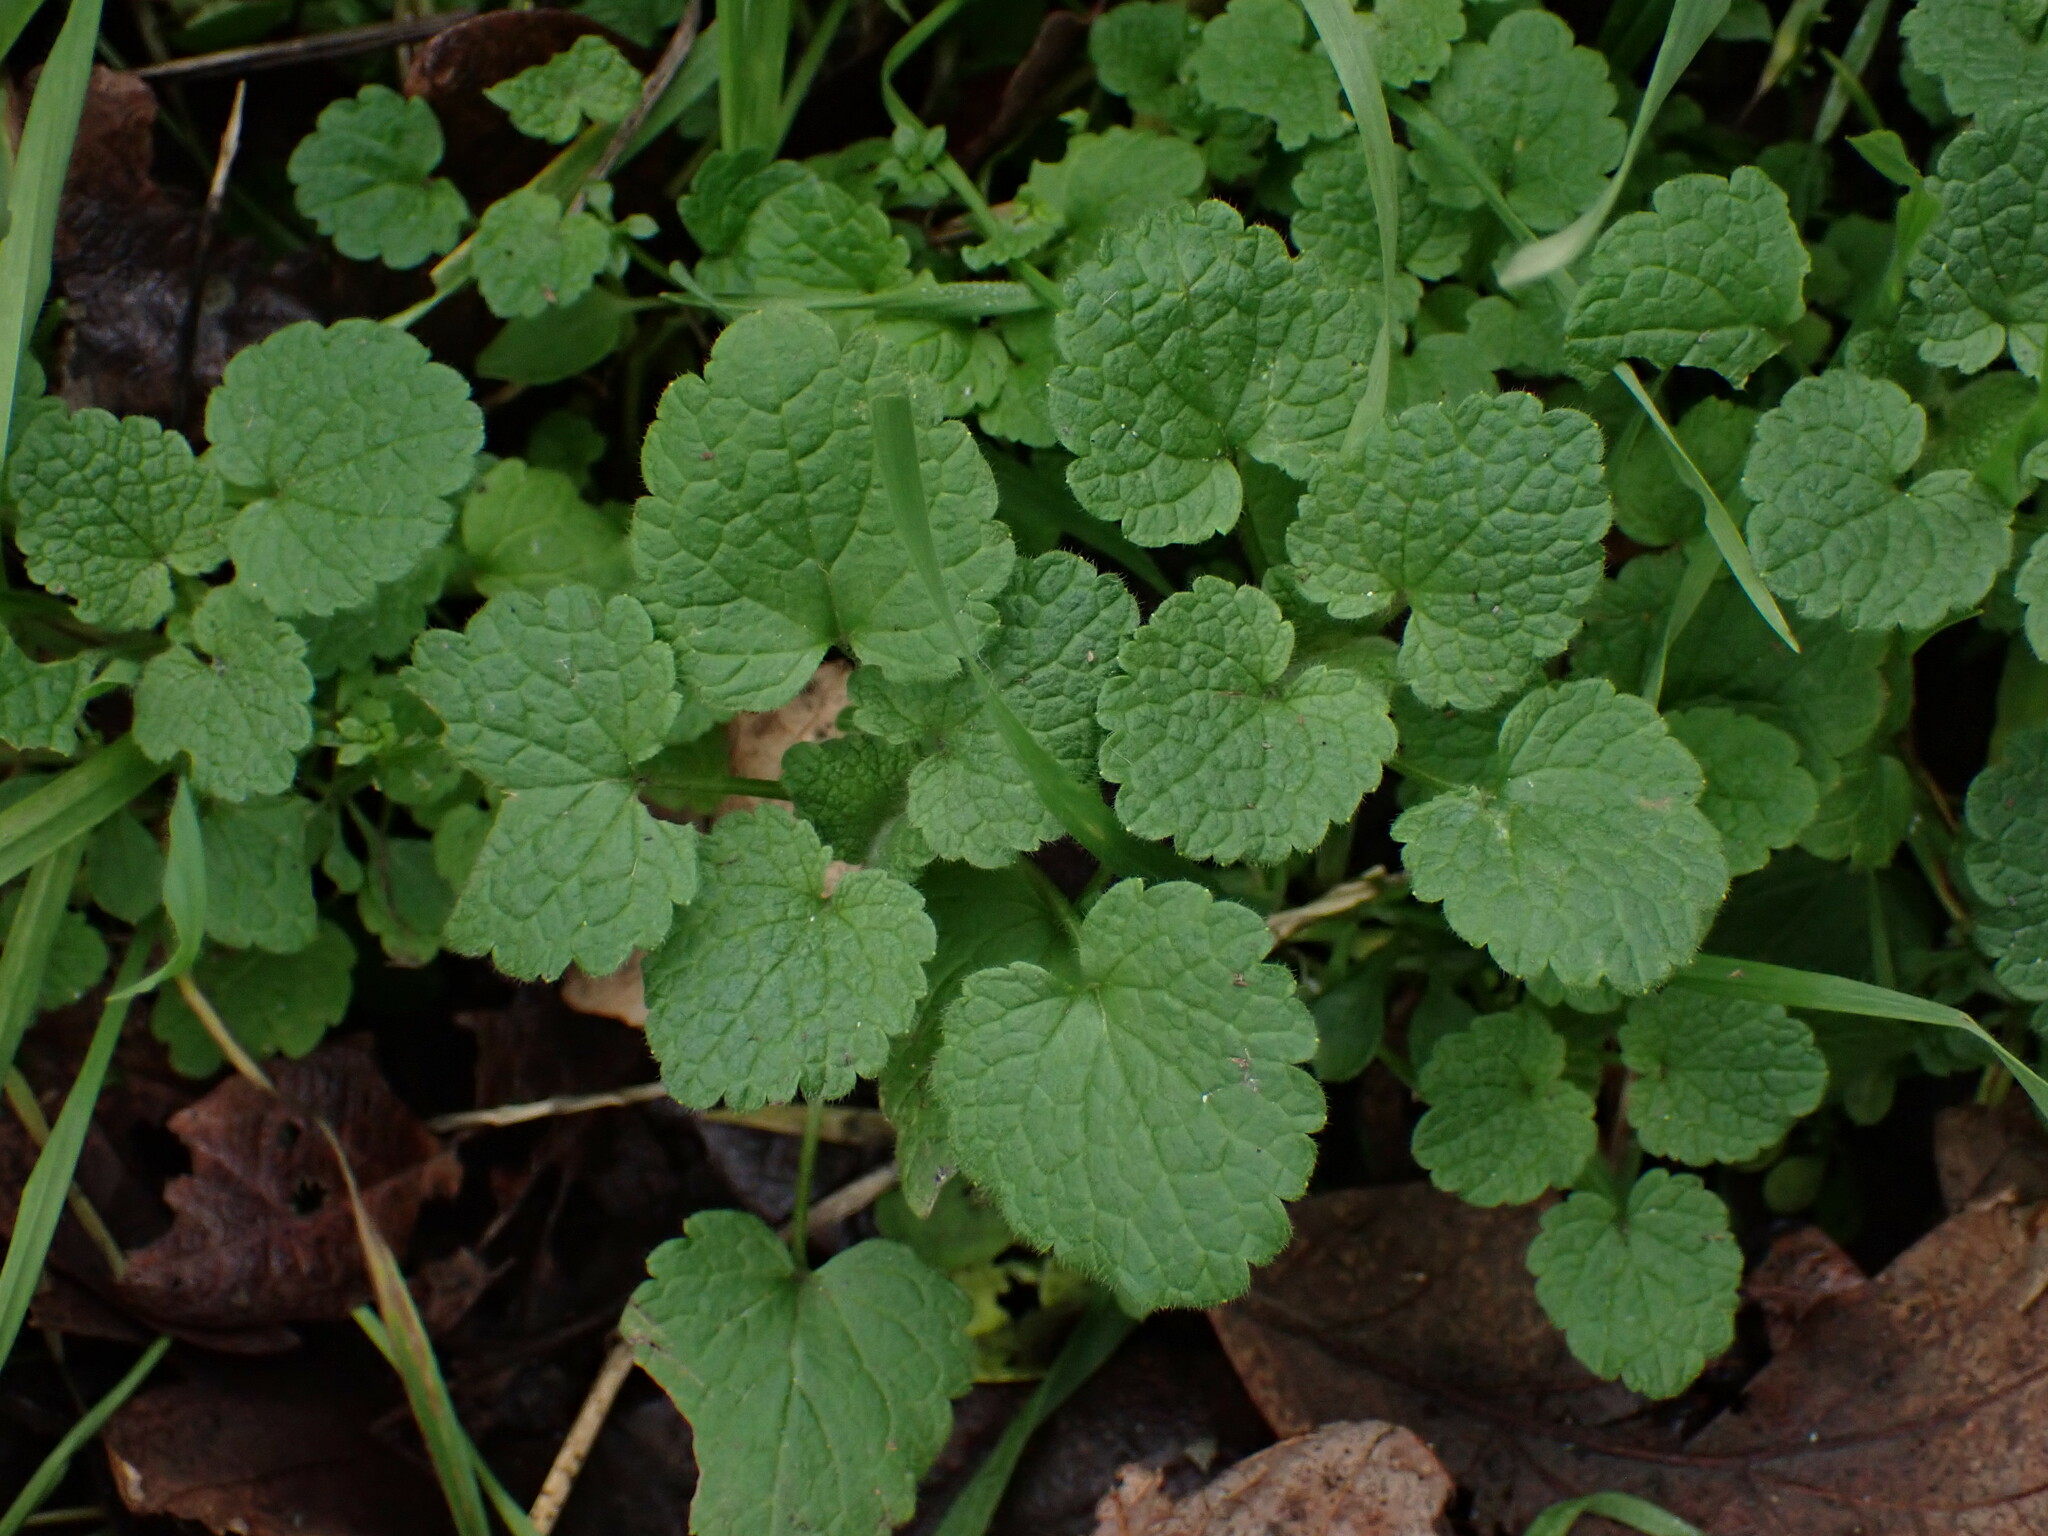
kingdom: Plantae
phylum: Tracheophyta
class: Magnoliopsida
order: Lamiales
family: Lamiaceae
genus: Lamium
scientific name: Lamium purpureum
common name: Red dead-nettle
